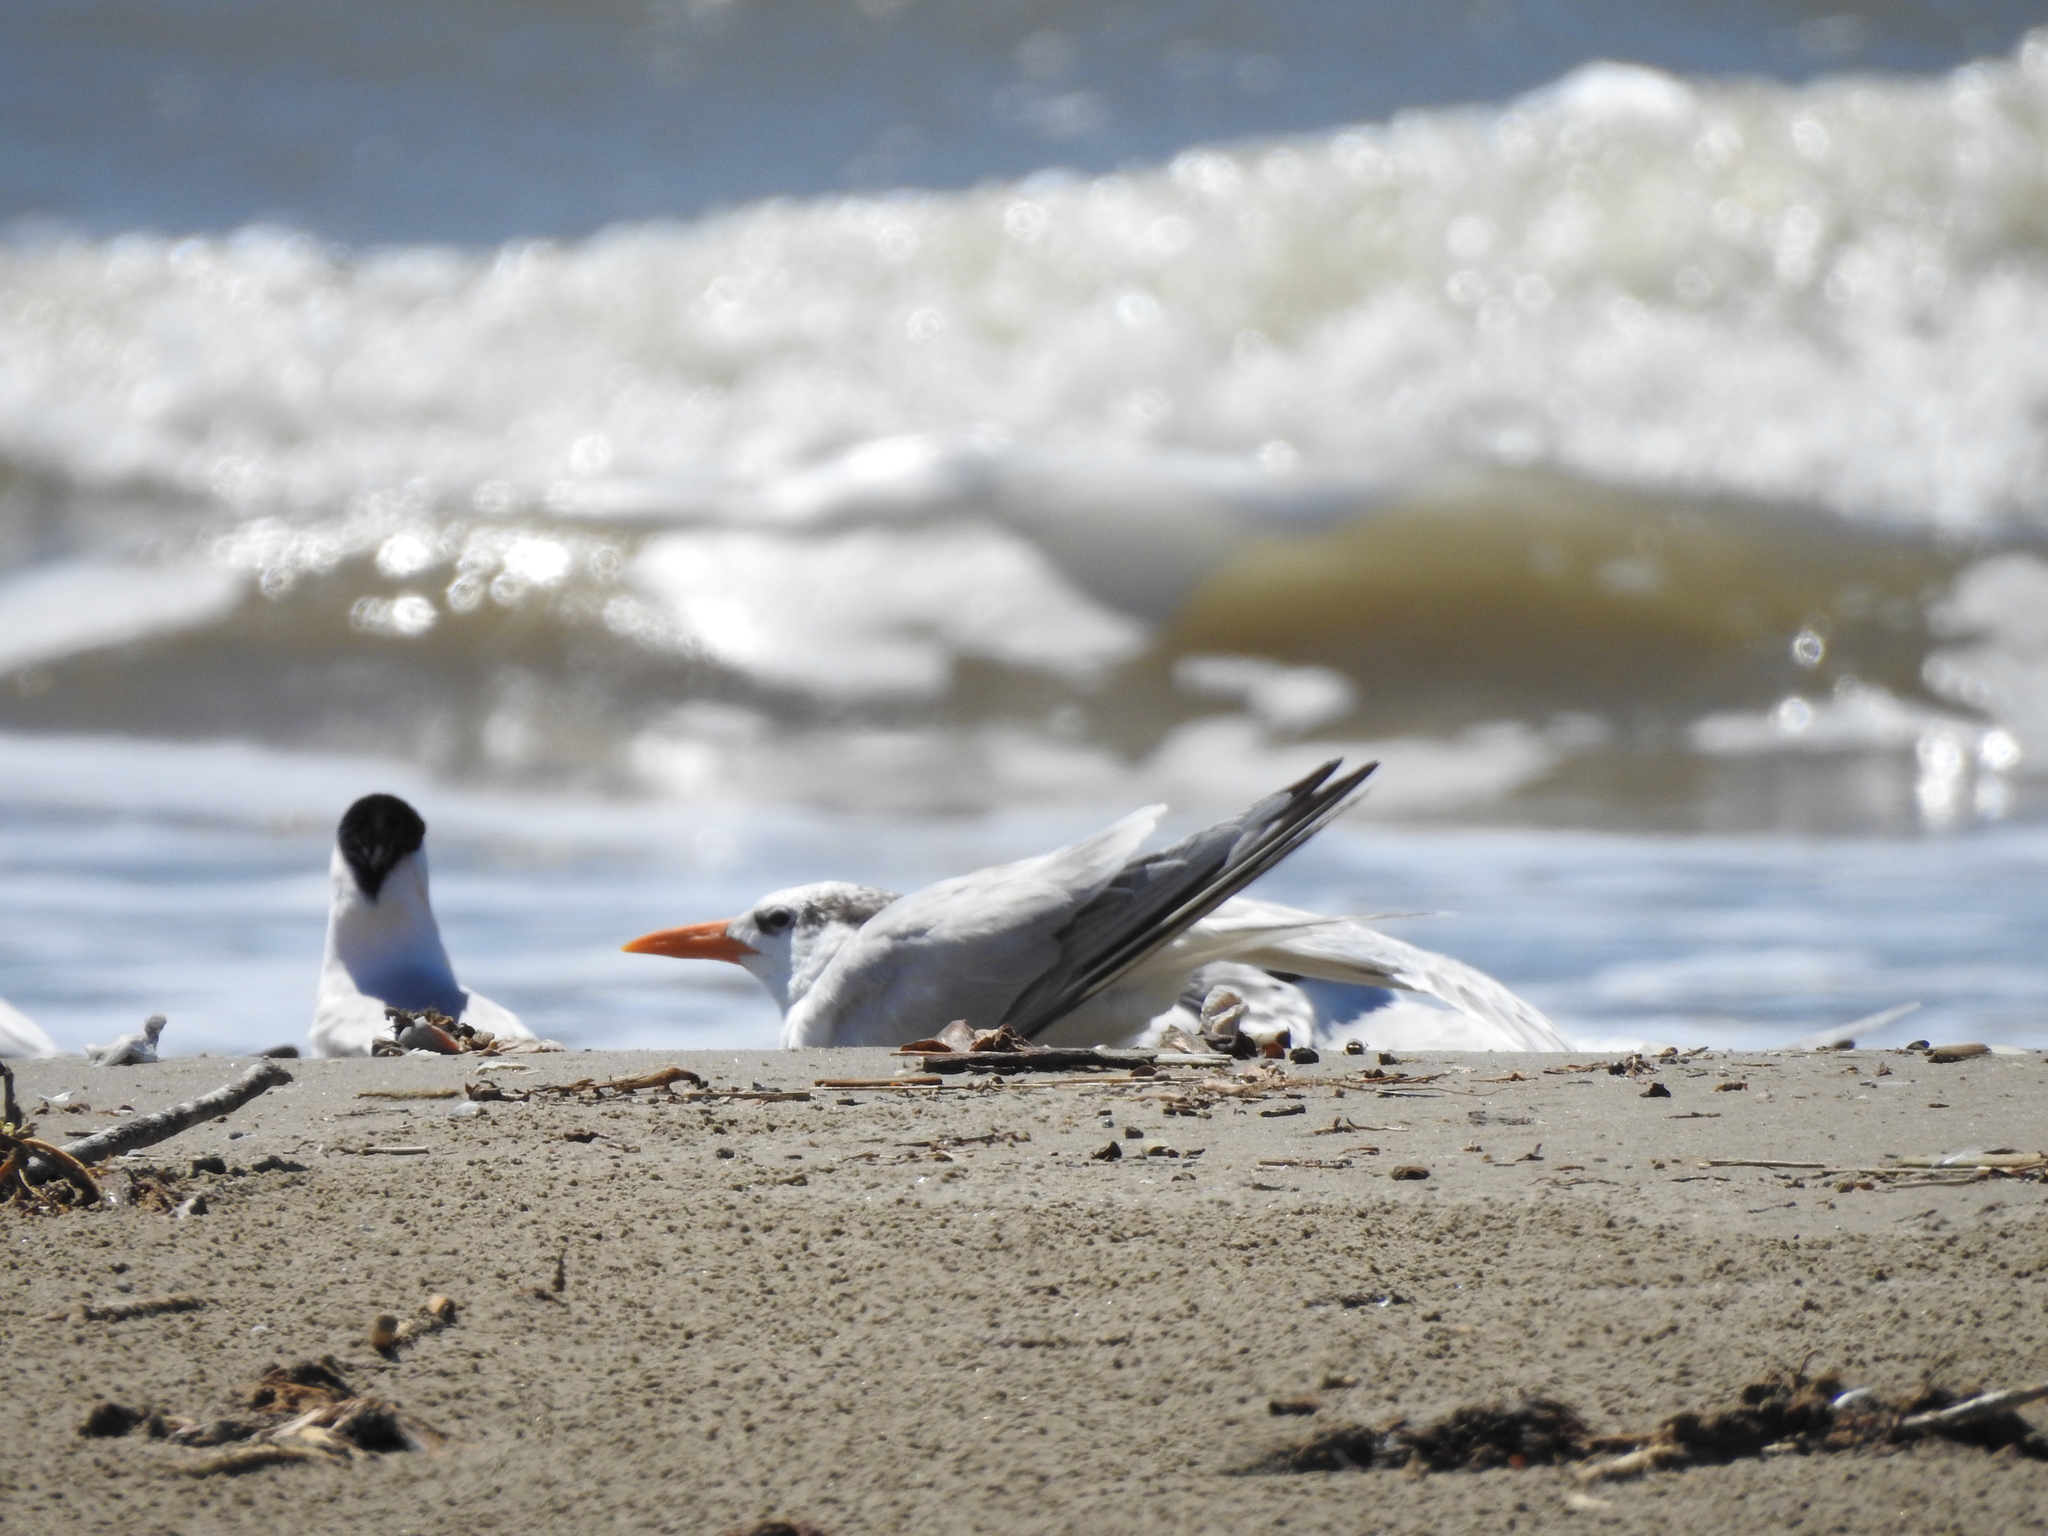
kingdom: Animalia
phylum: Chordata
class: Aves
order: Charadriiformes
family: Laridae
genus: Thalasseus
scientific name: Thalasseus maximus
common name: Royal tern
